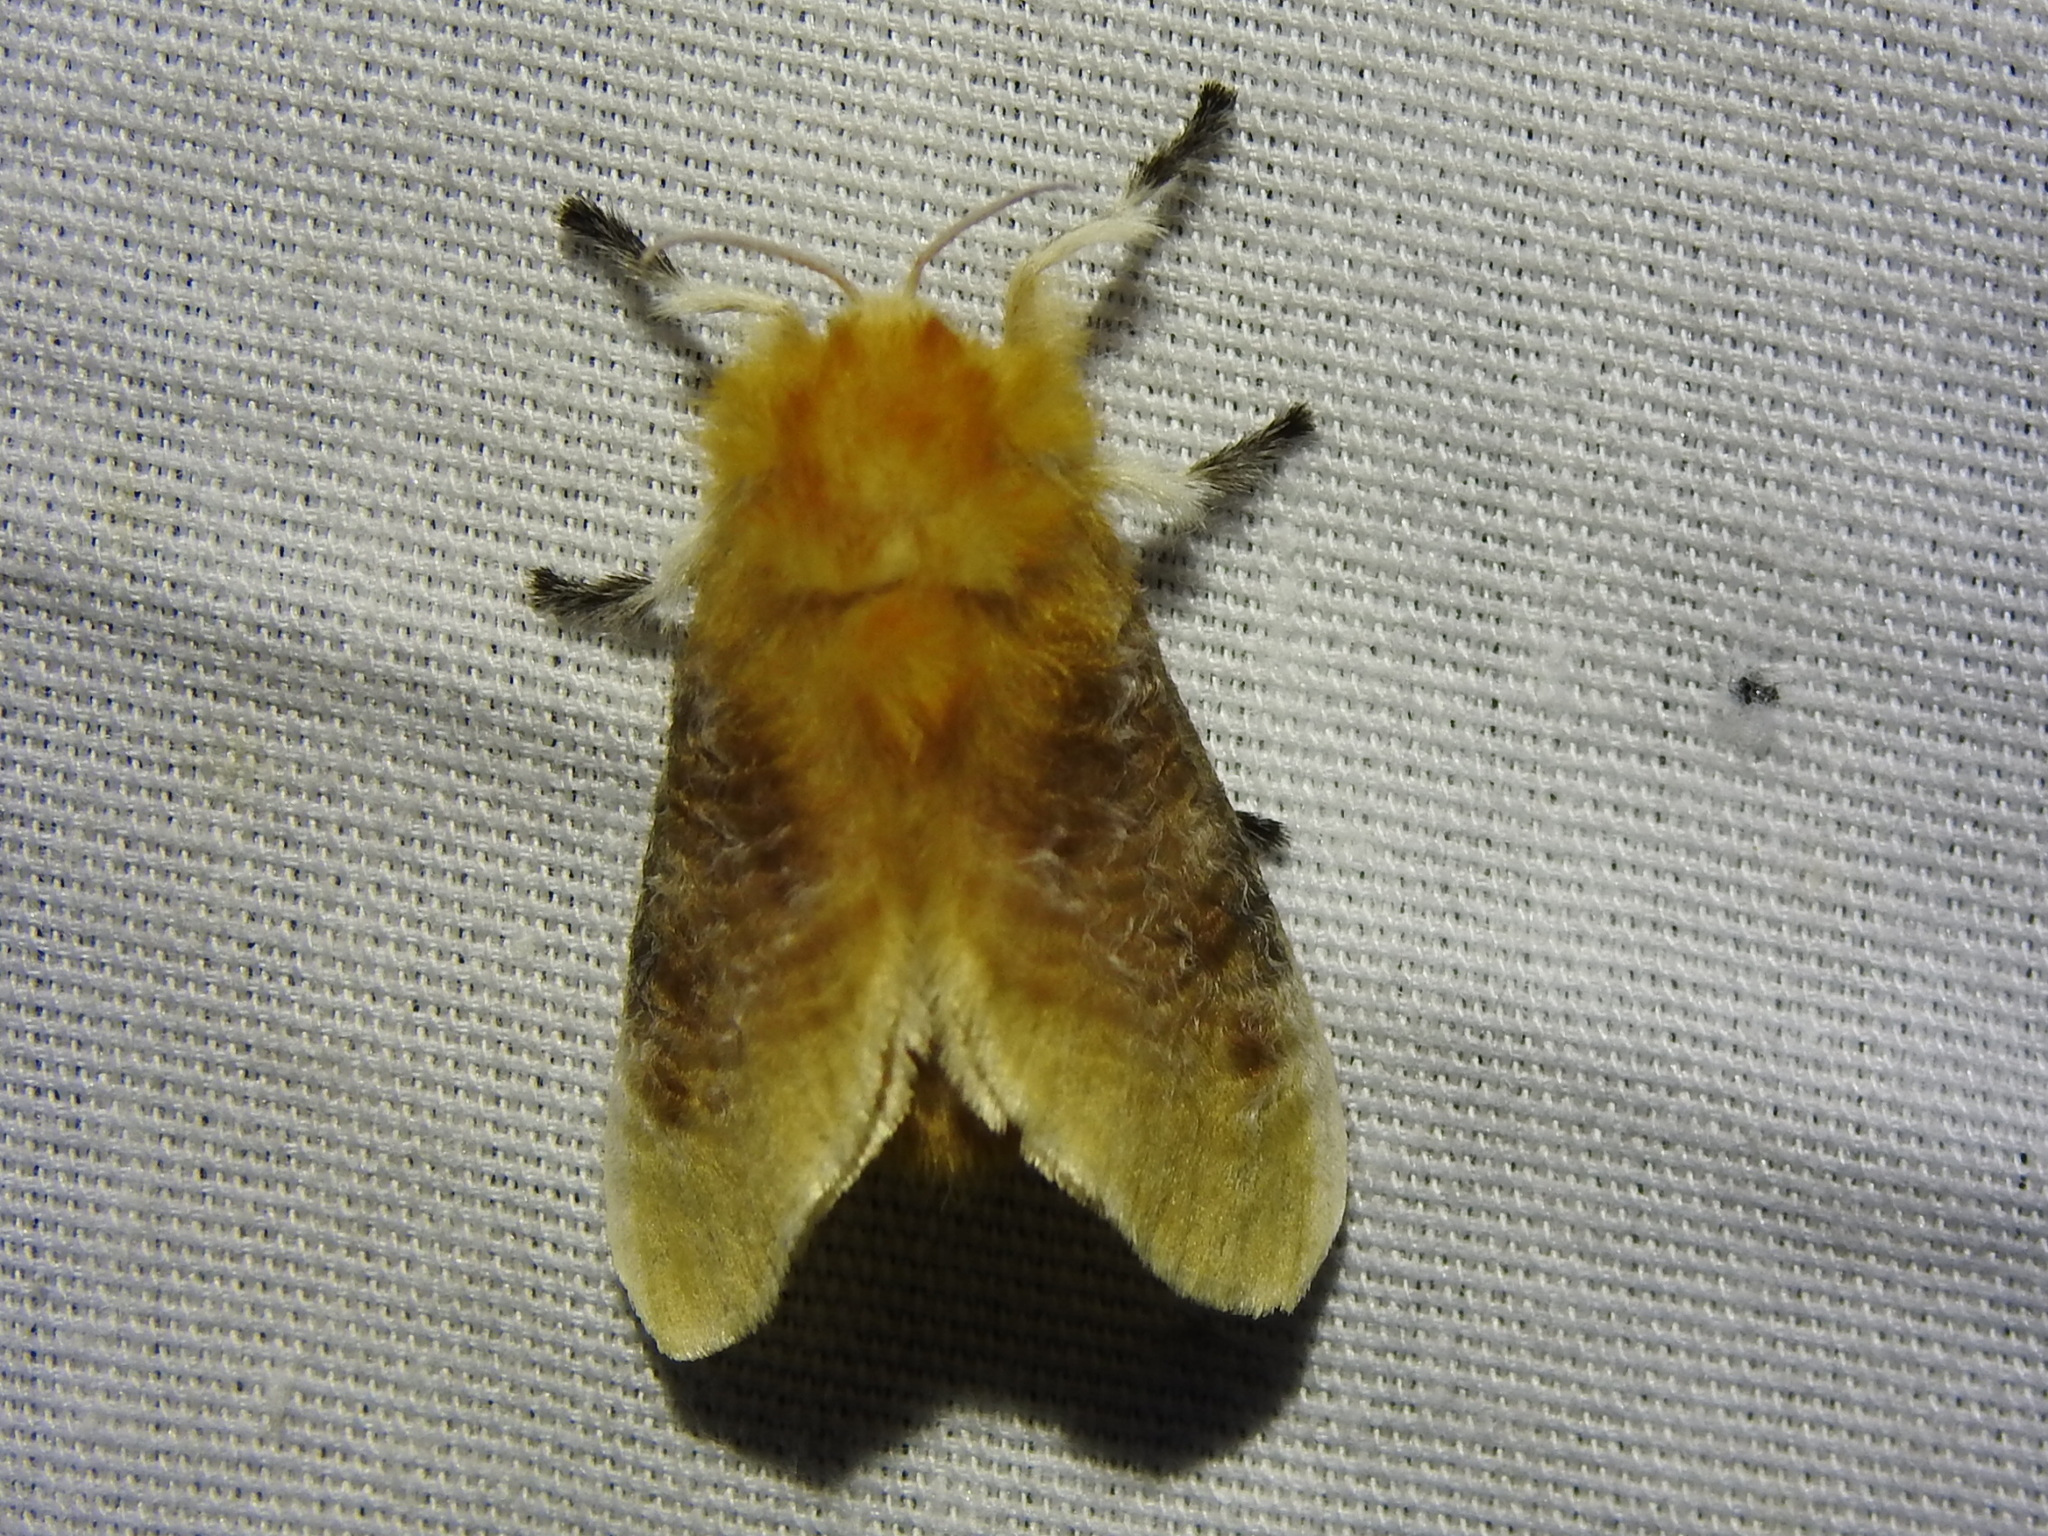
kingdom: Animalia
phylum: Arthropoda
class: Insecta
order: Lepidoptera
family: Megalopygidae
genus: Megalopyge
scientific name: Megalopyge opercularis
